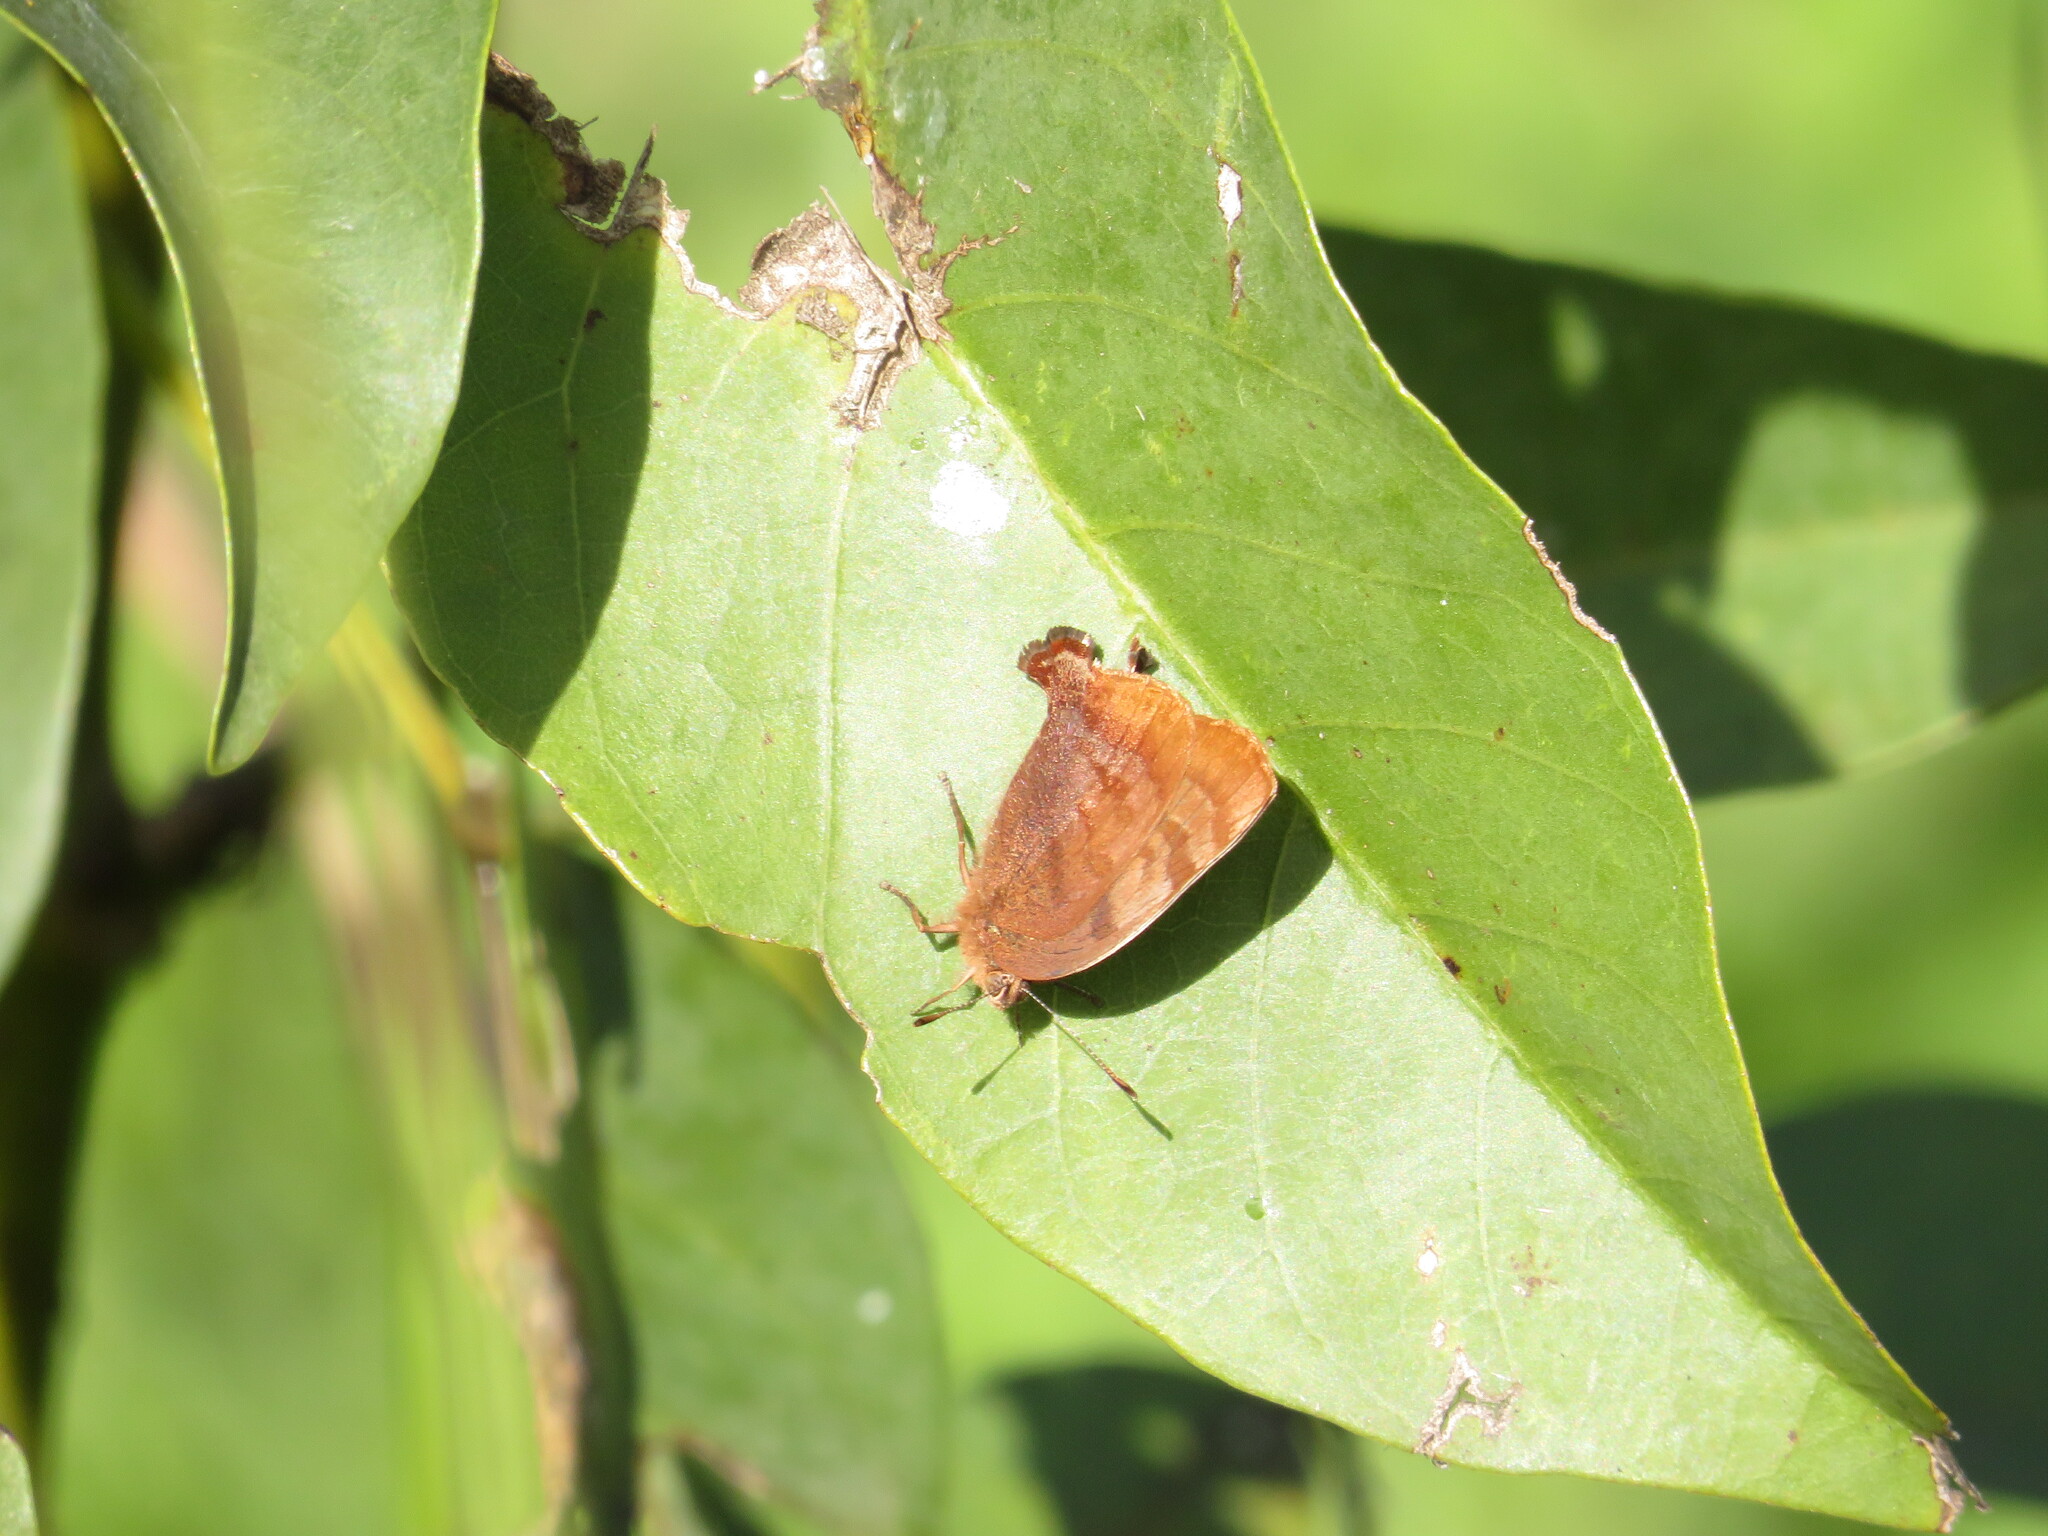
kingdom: Animalia
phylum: Arthropoda
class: Insecta
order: Lepidoptera
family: Lycaenidae
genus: Thecla
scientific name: Thecla marius
